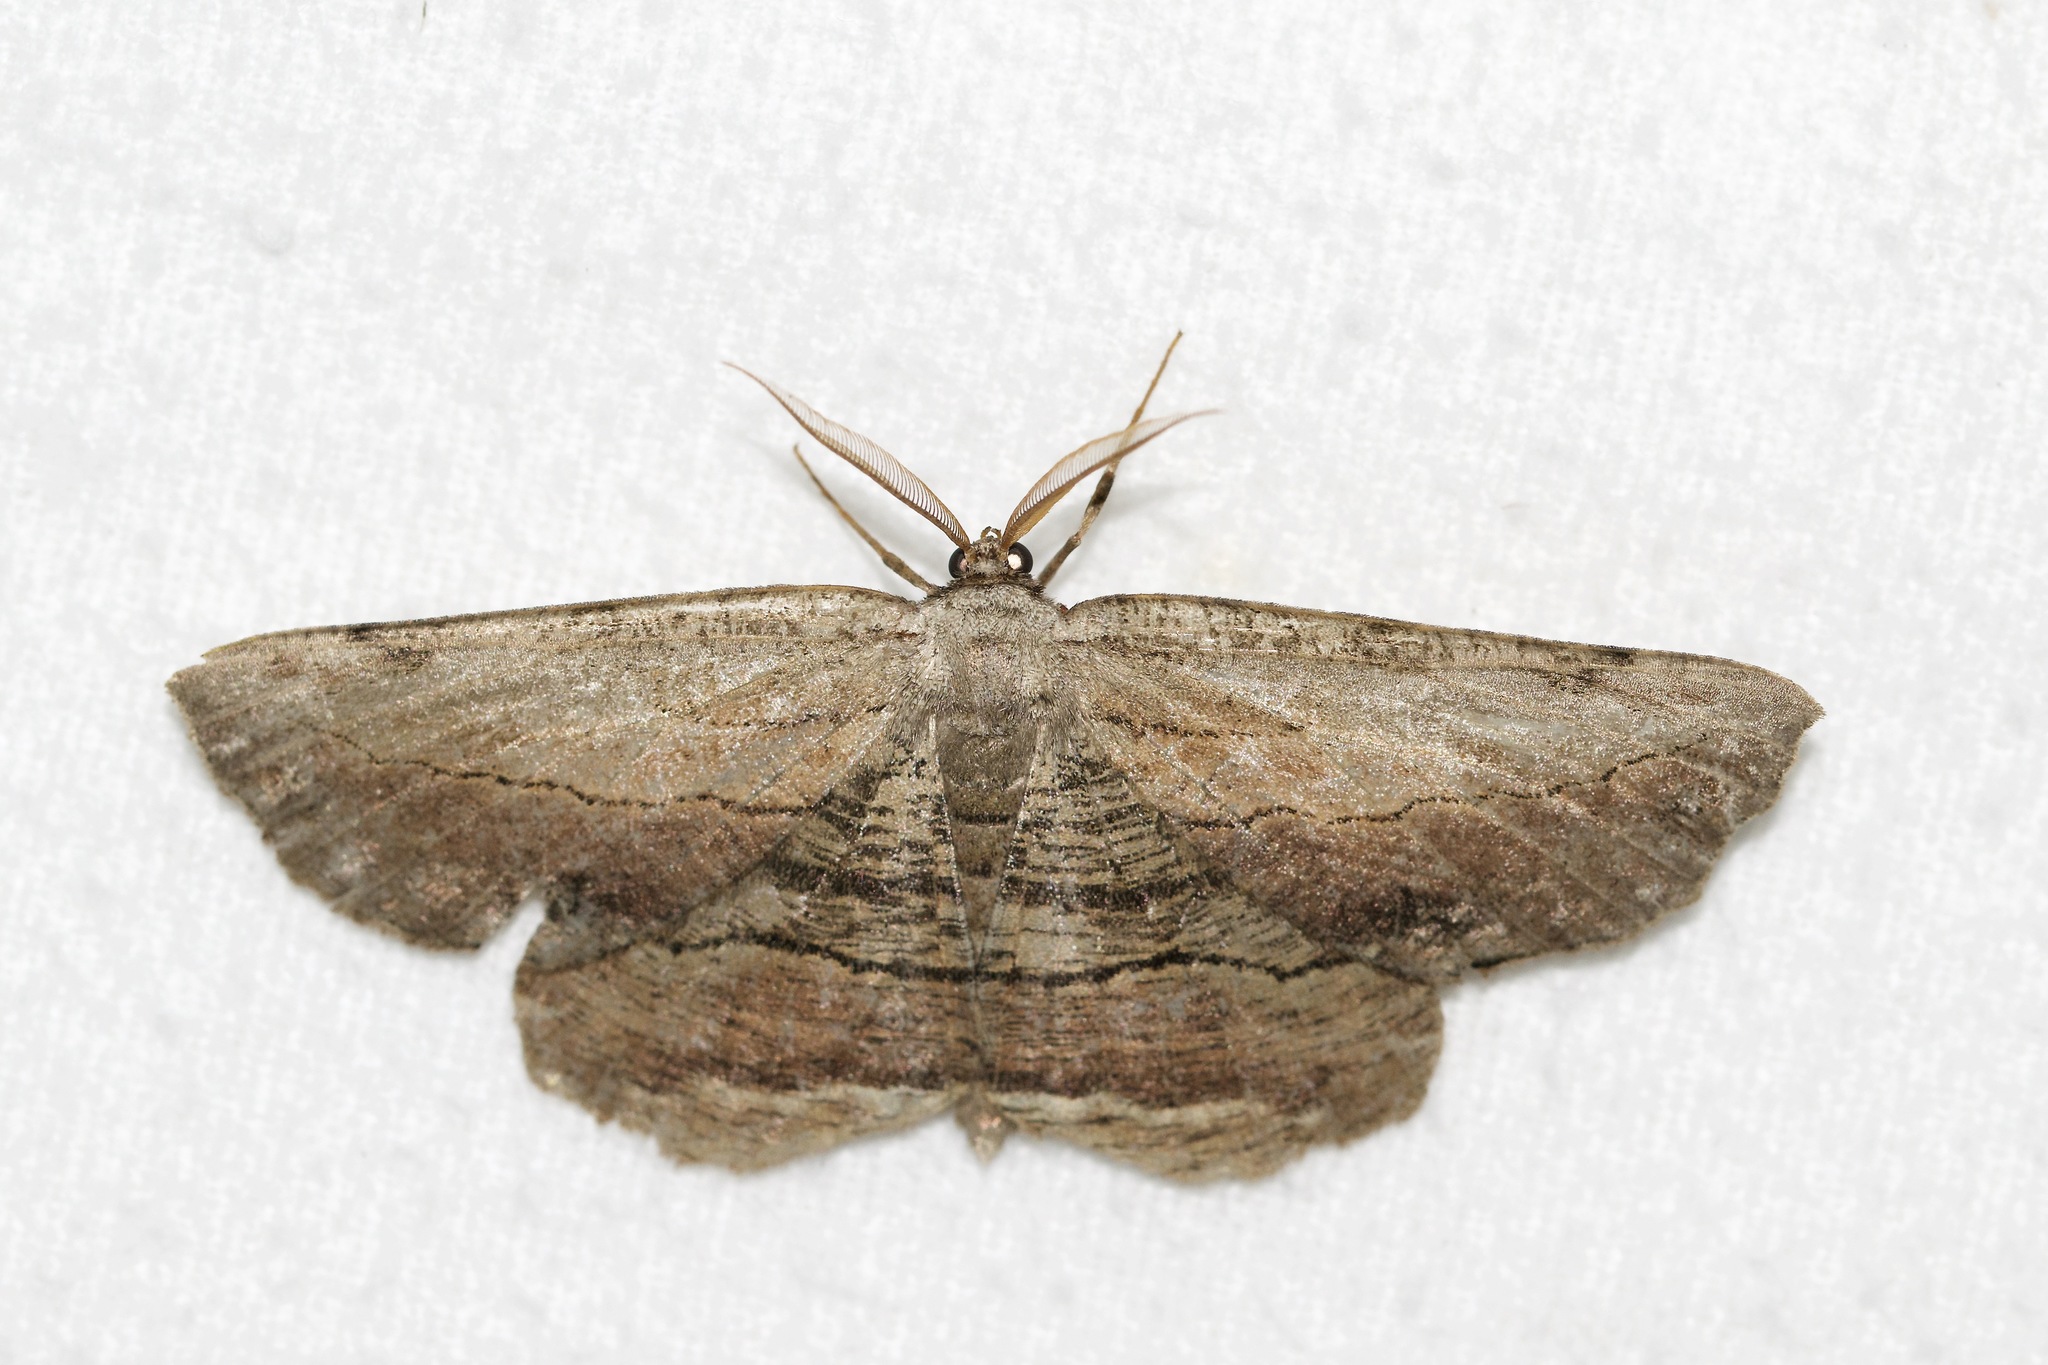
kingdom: Animalia
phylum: Arthropoda
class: Insecta
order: Lepidoptera
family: Geometridae
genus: Lytrosis
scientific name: Lytrosis unitaria
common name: Common lytrosis
